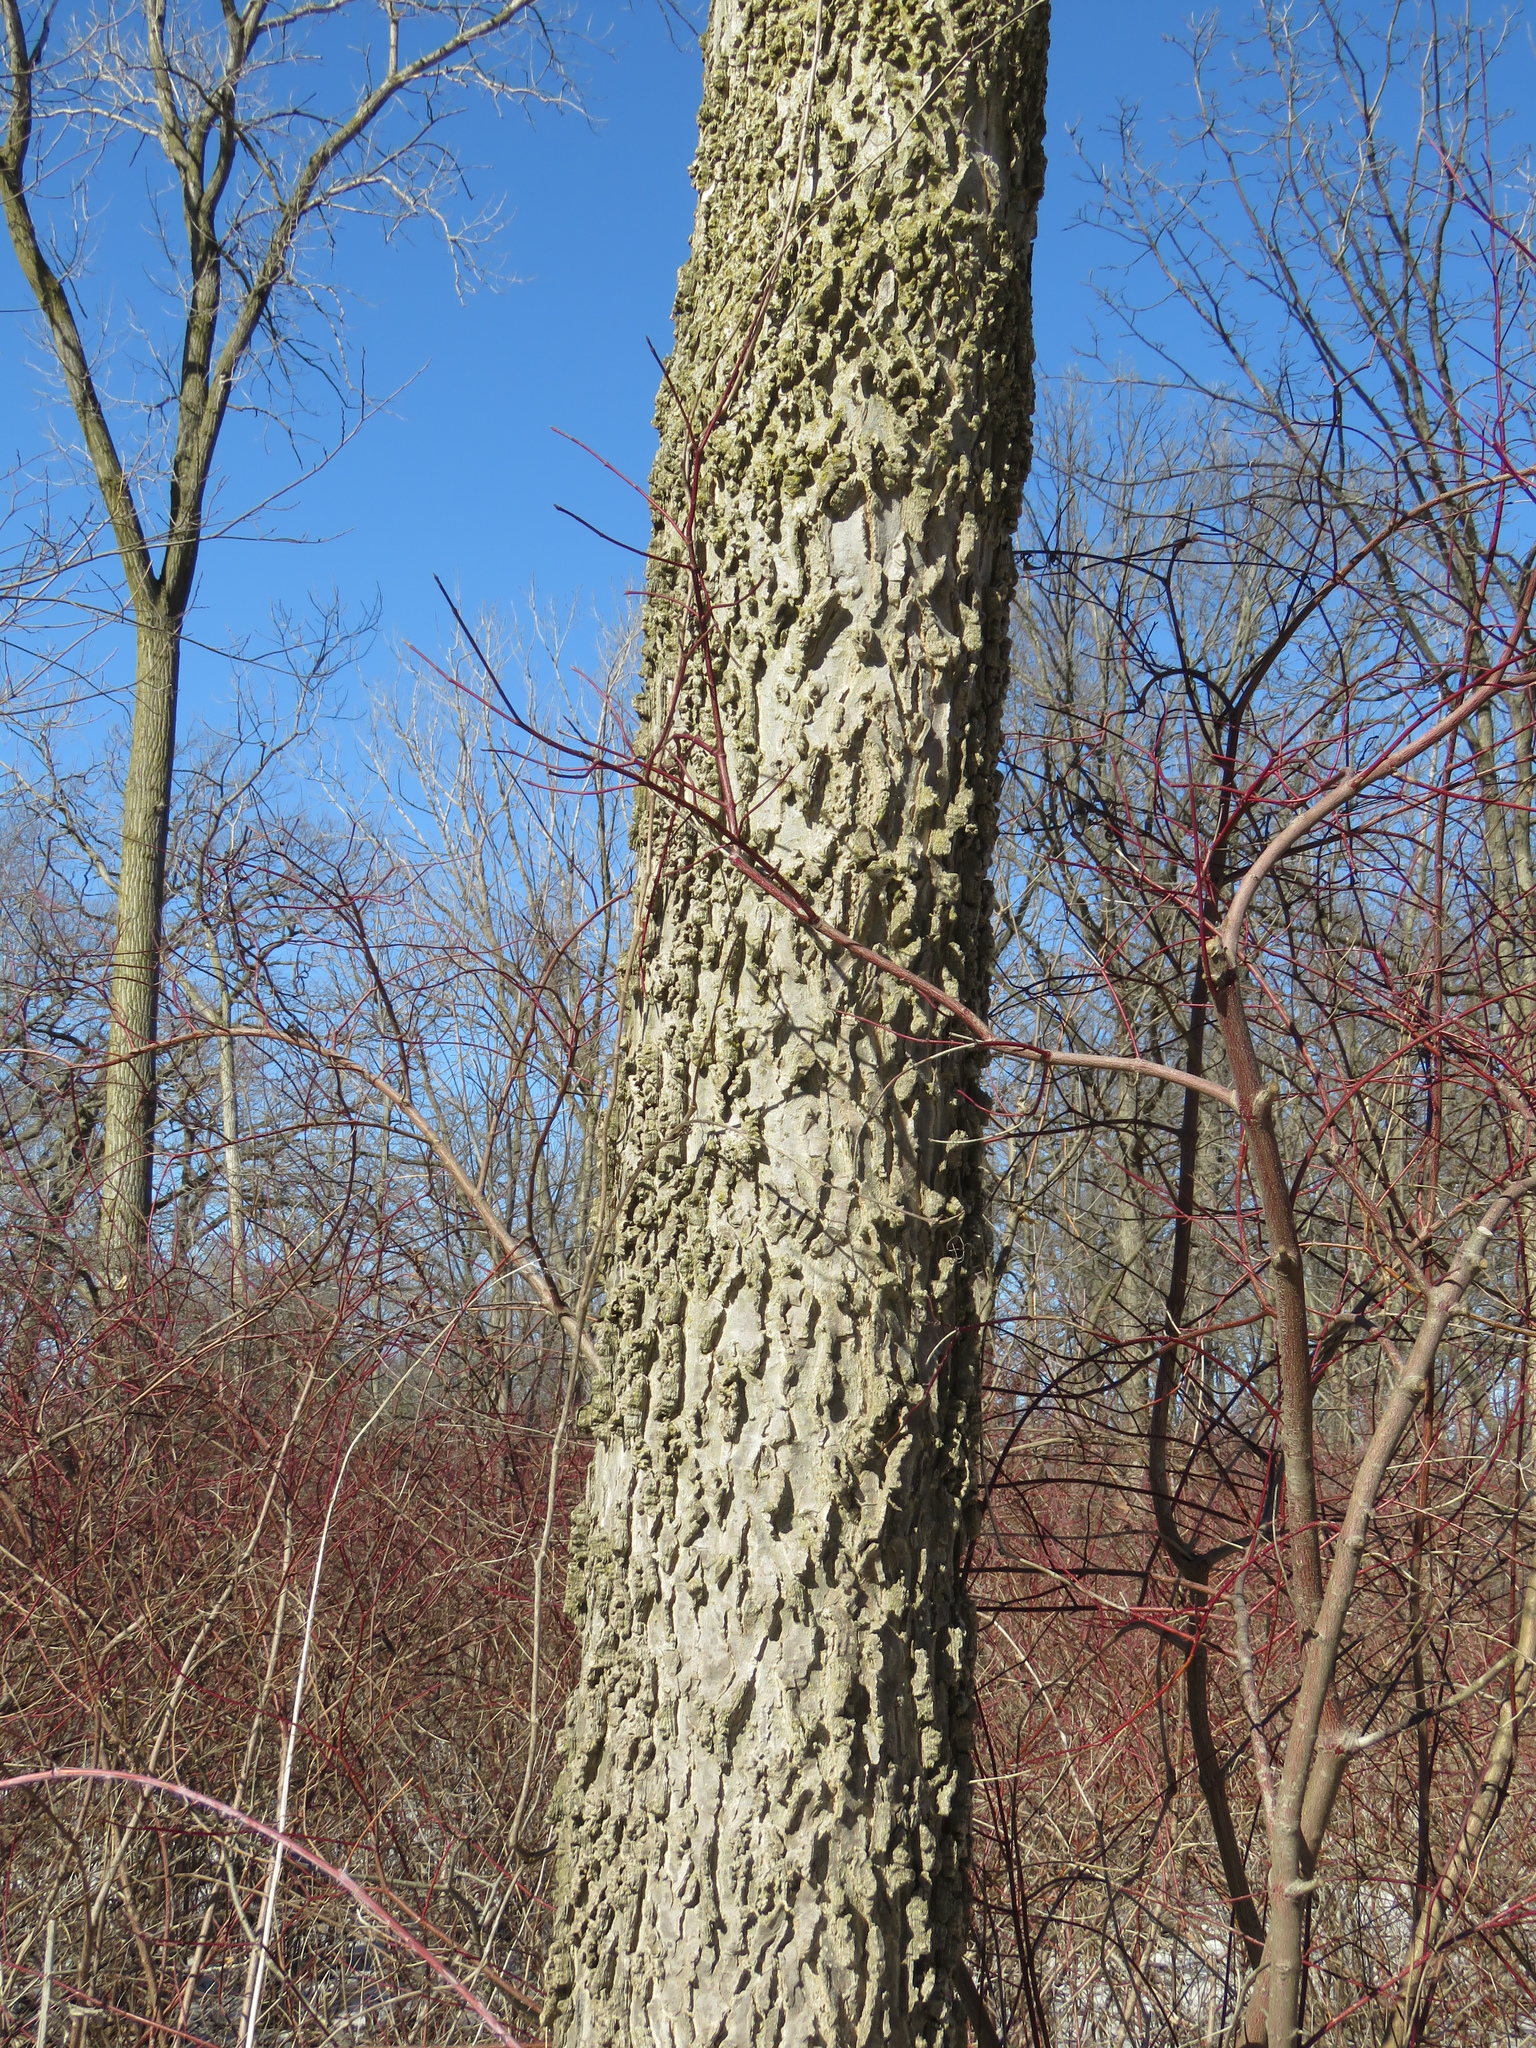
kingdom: Plantae
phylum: Tracheophyta
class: Magnoliopsida
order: Rosales
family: Cannabaceae
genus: Celtis
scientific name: Celtis occidentalis
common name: Common hackberry
